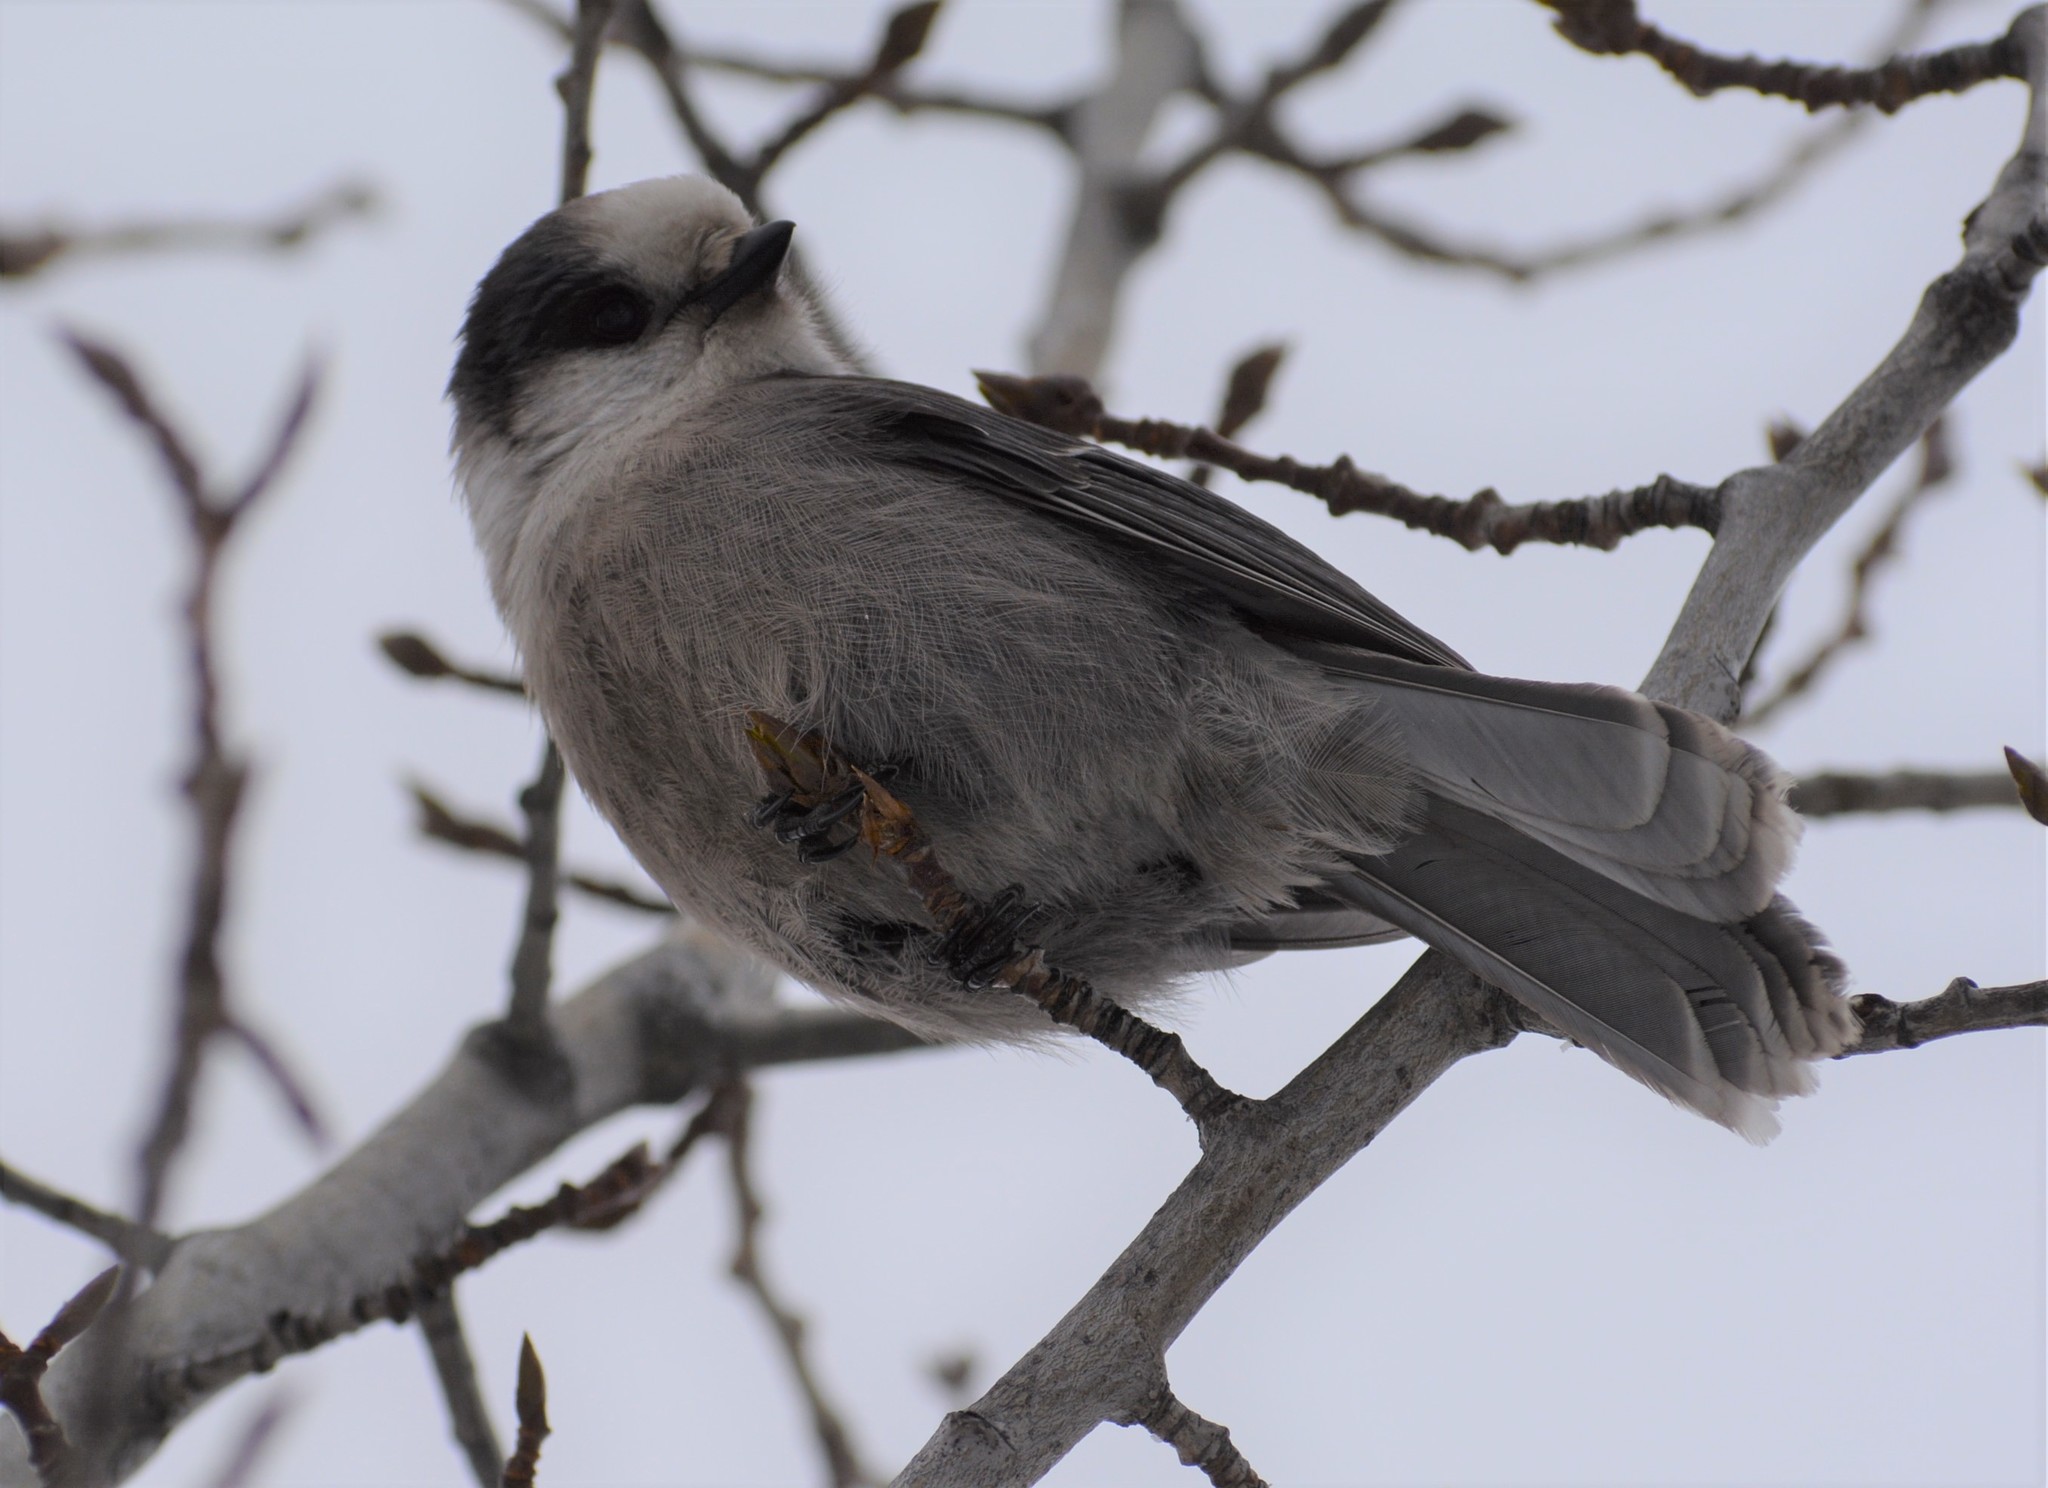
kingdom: Animalia
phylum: Chordata
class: Aves
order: Passeriformes
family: Corvidae
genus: Perisoreus
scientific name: Perisoreus canadensis
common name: Gray jay
